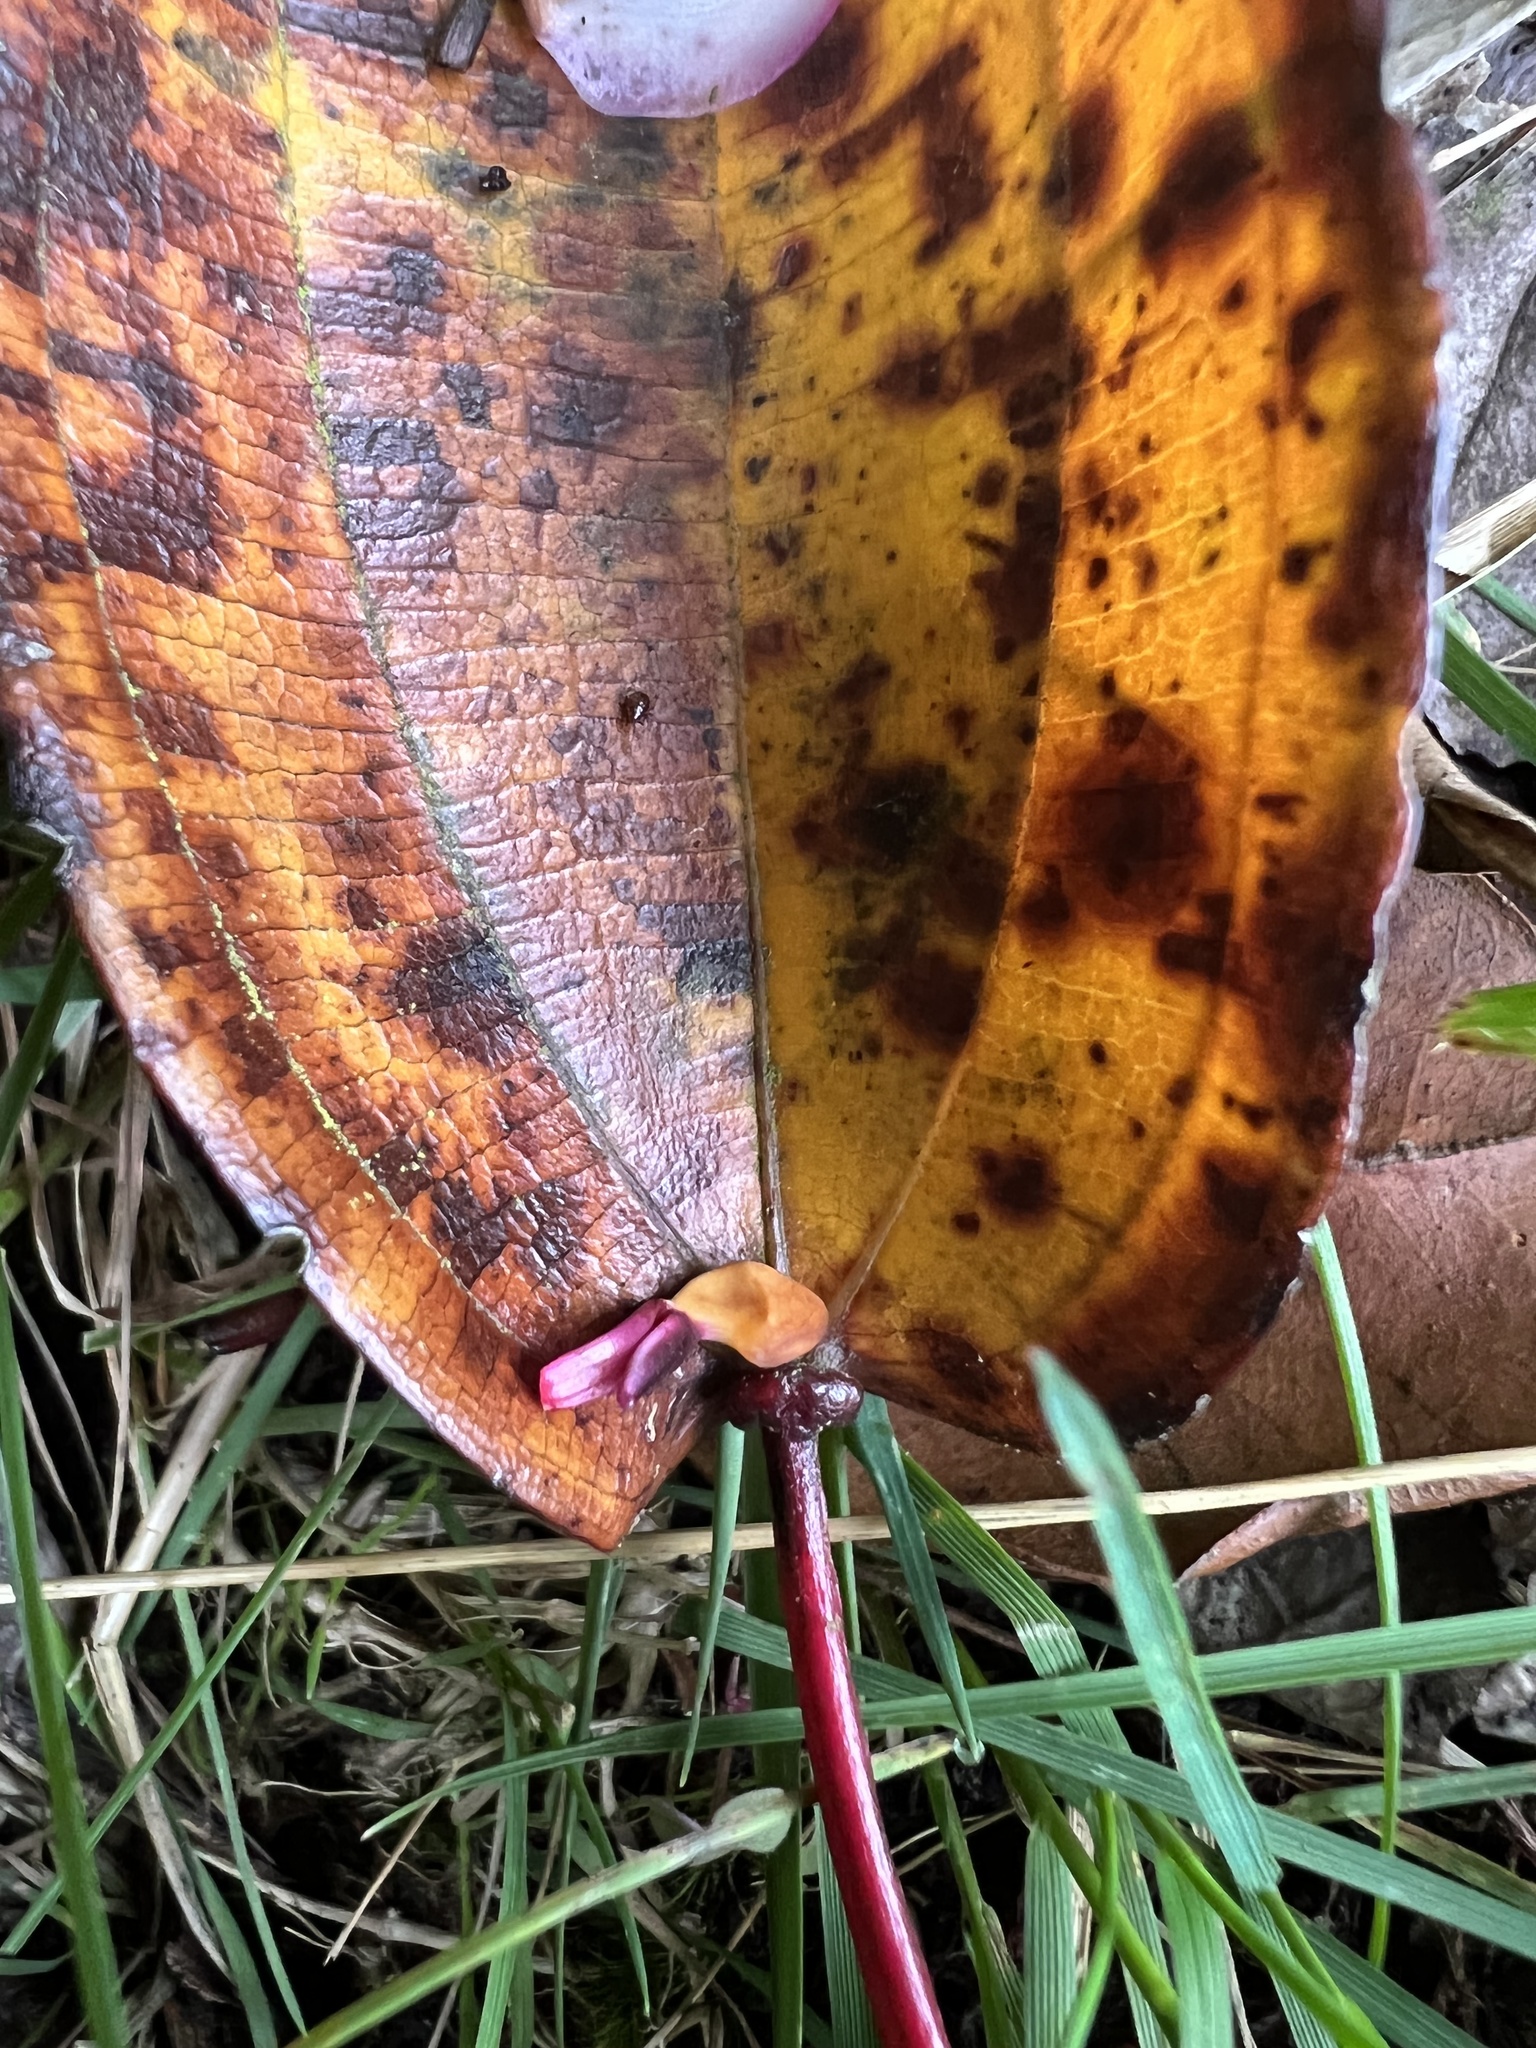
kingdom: Plantae
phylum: Tracheophyta
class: Magnoliopsida
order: Myrtales
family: Melastomataceae
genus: Axinaea
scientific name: Axinaea scutigera
